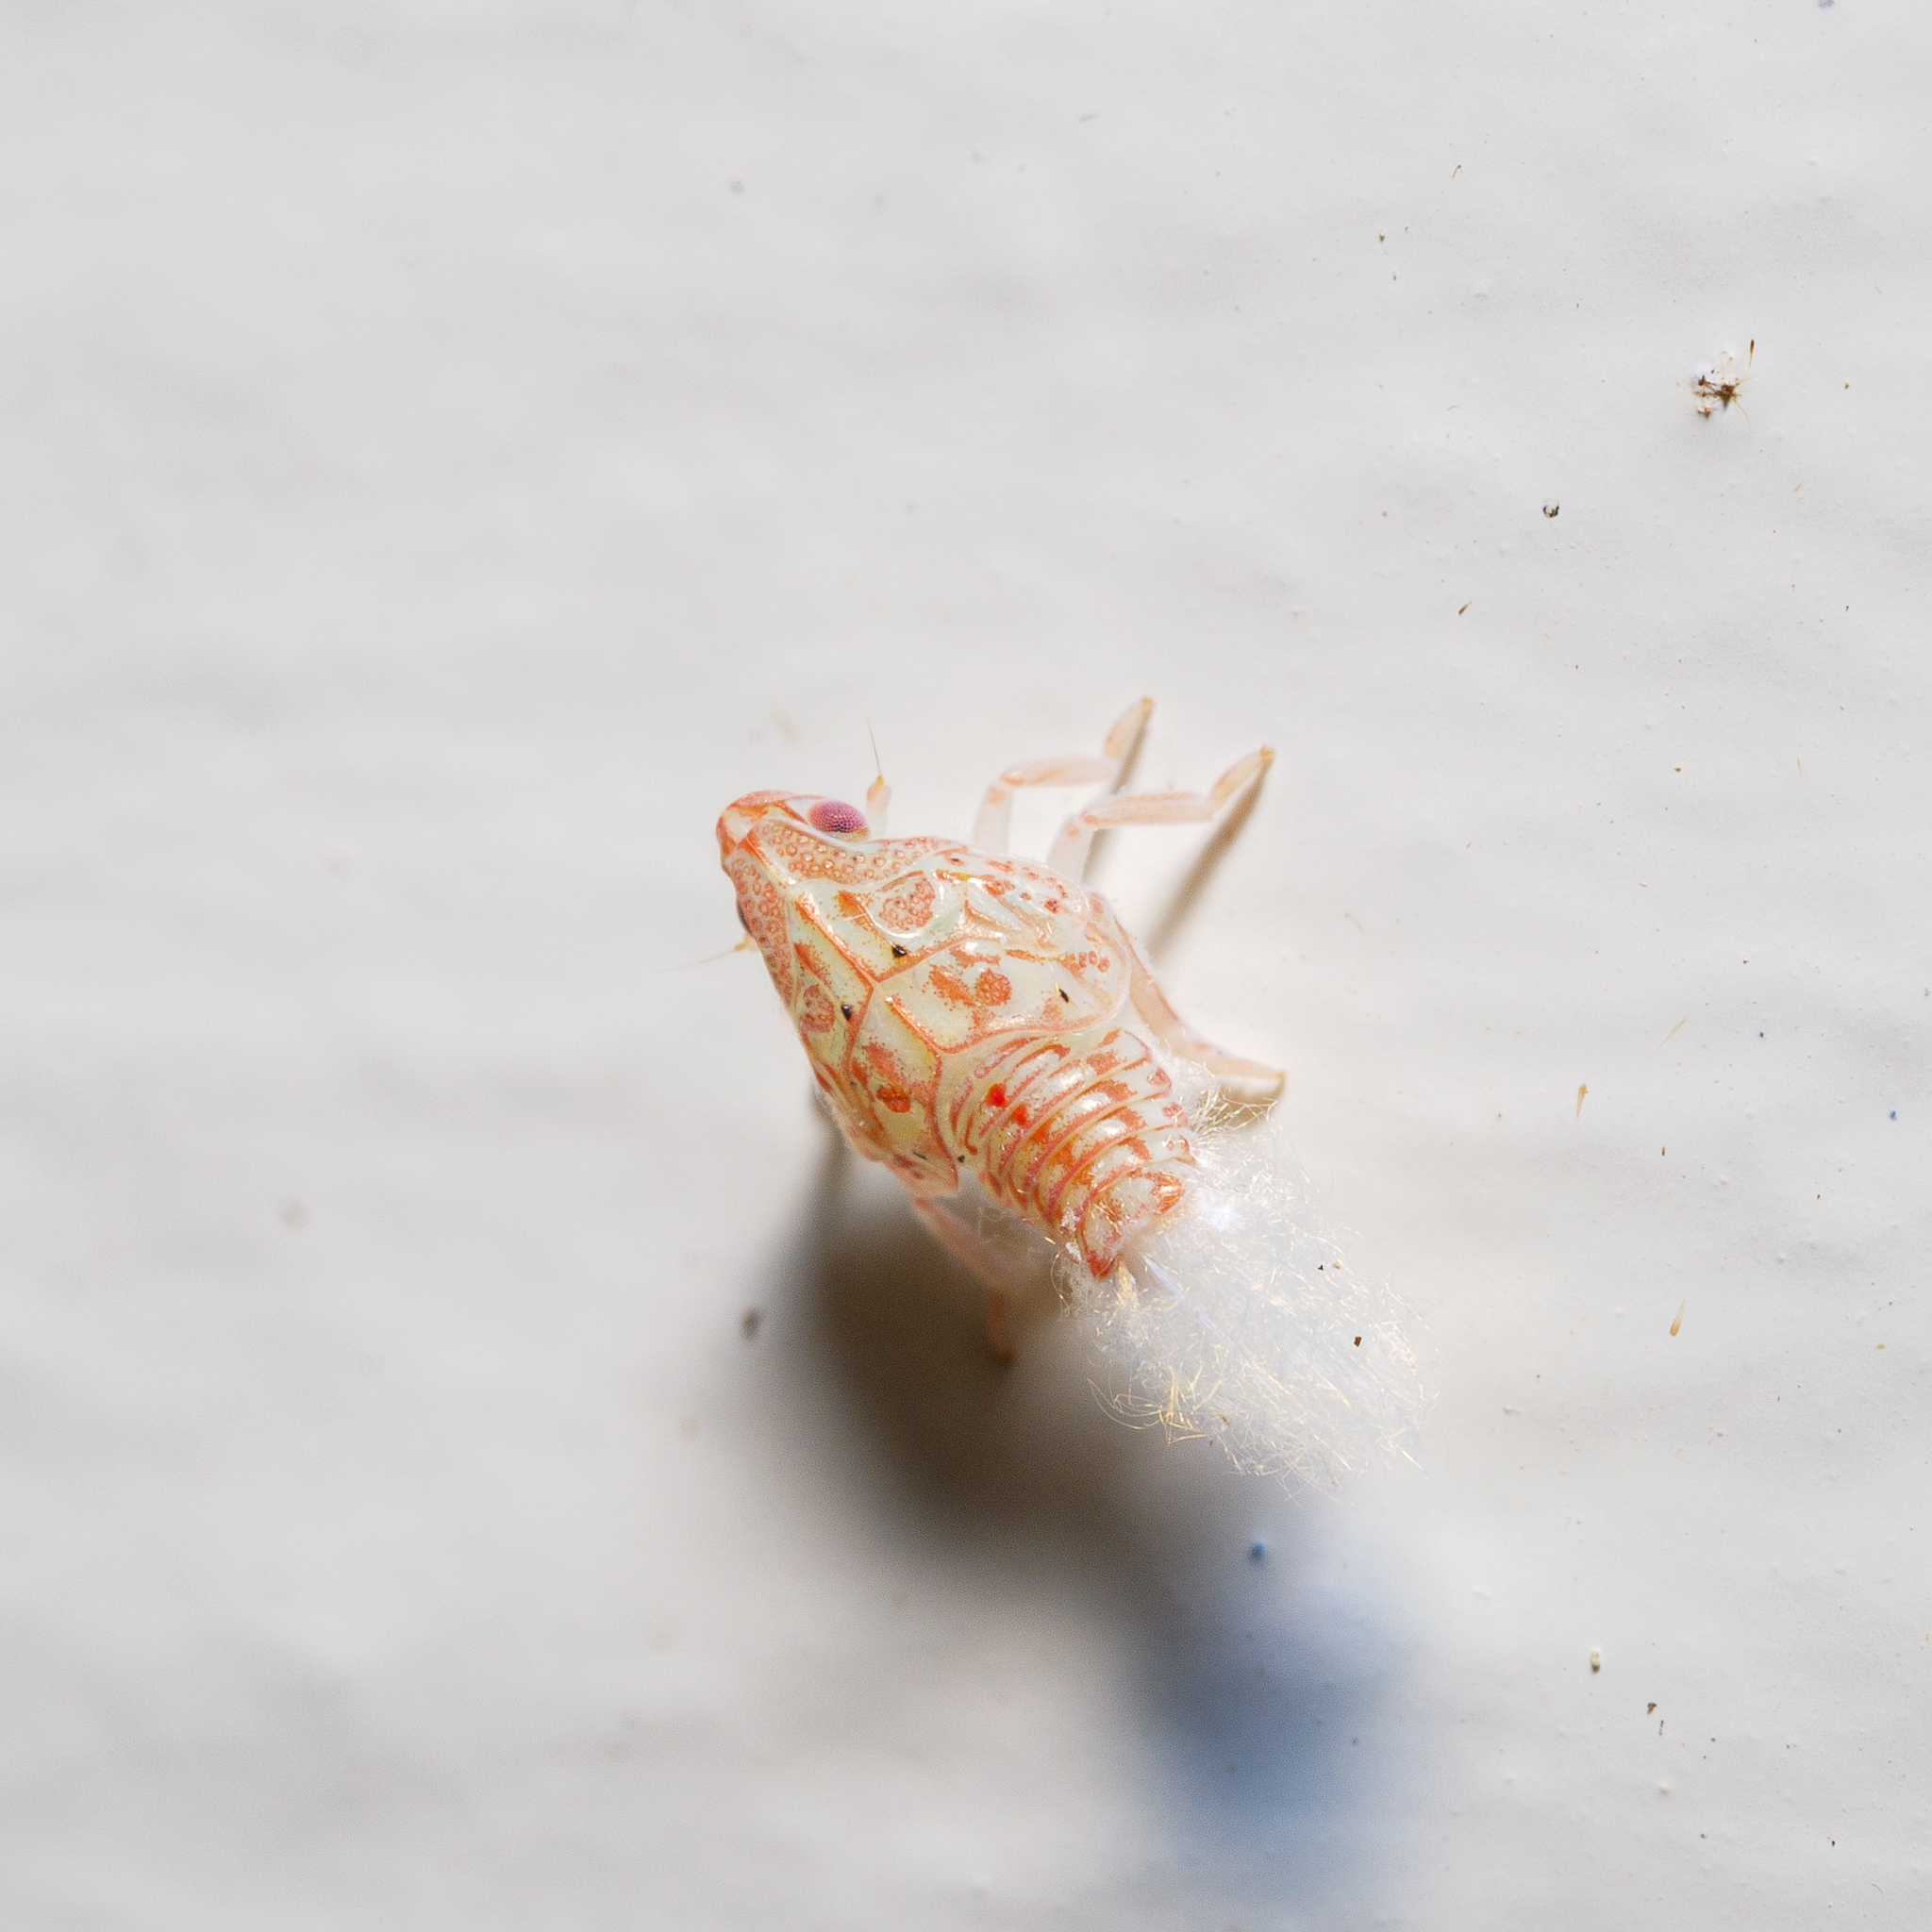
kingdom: Animalia
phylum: Arthropoda
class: Insecta
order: Hemiptera
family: Flatidae
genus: Siphanta
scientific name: Siphanta acuta
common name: Torpedo bug
